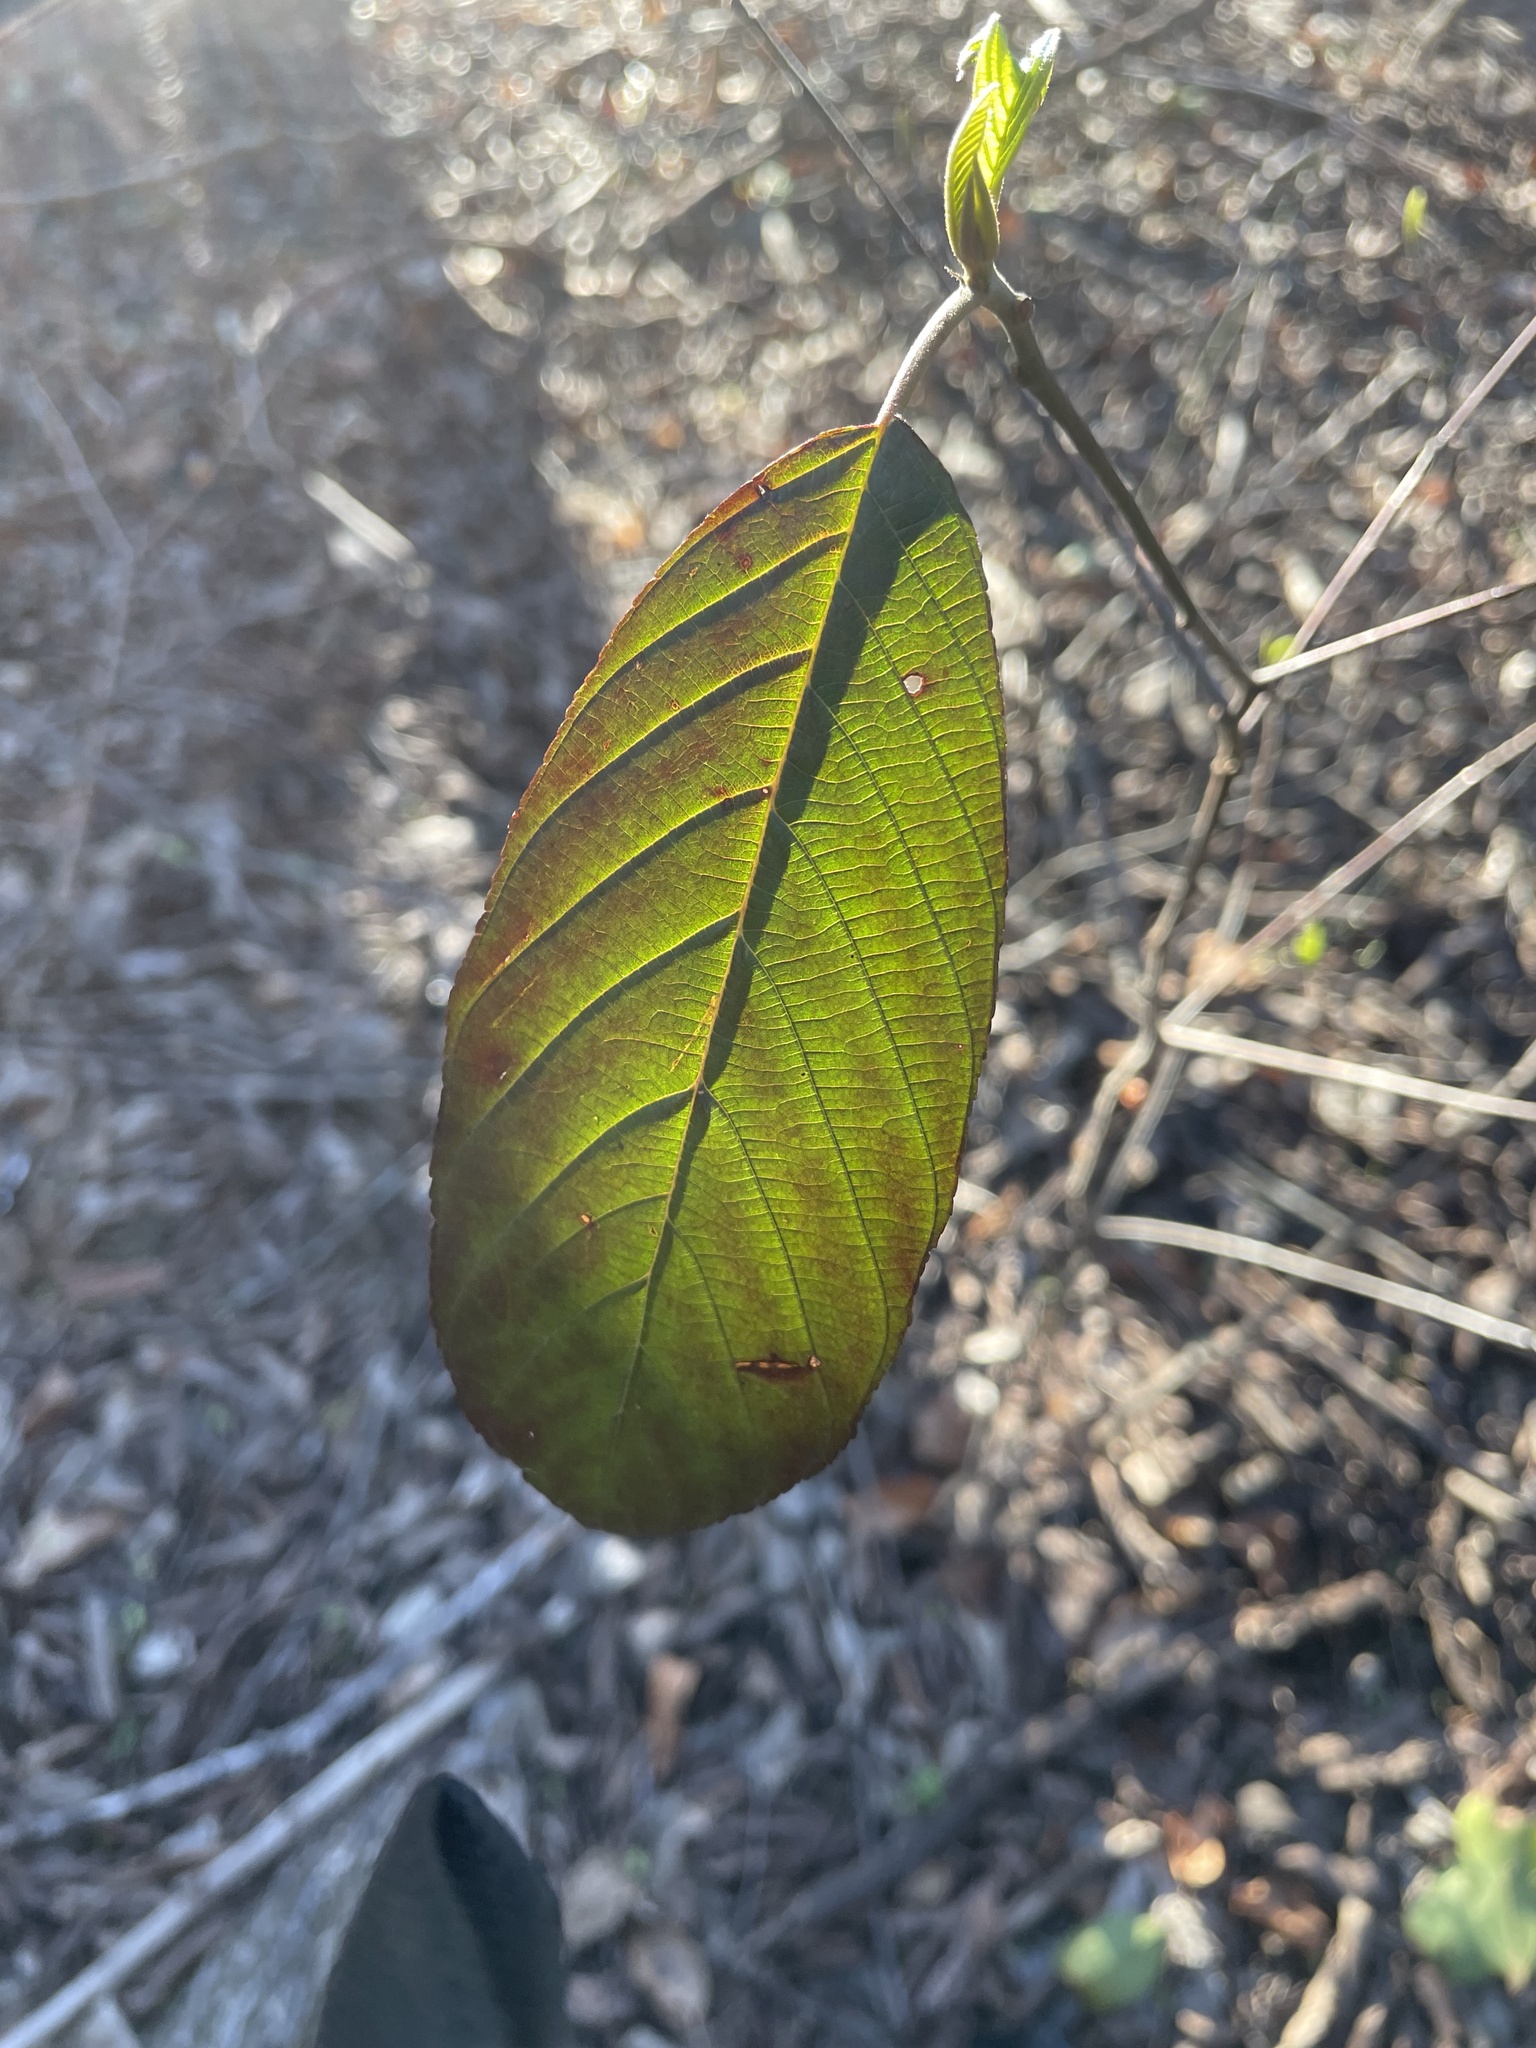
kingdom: Plantae
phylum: Tracheophyta
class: Magnoliopsida
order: Rosales
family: Rhamnaceae
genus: Frangula
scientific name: Frangula caroliniana
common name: Carolina buckthorn
